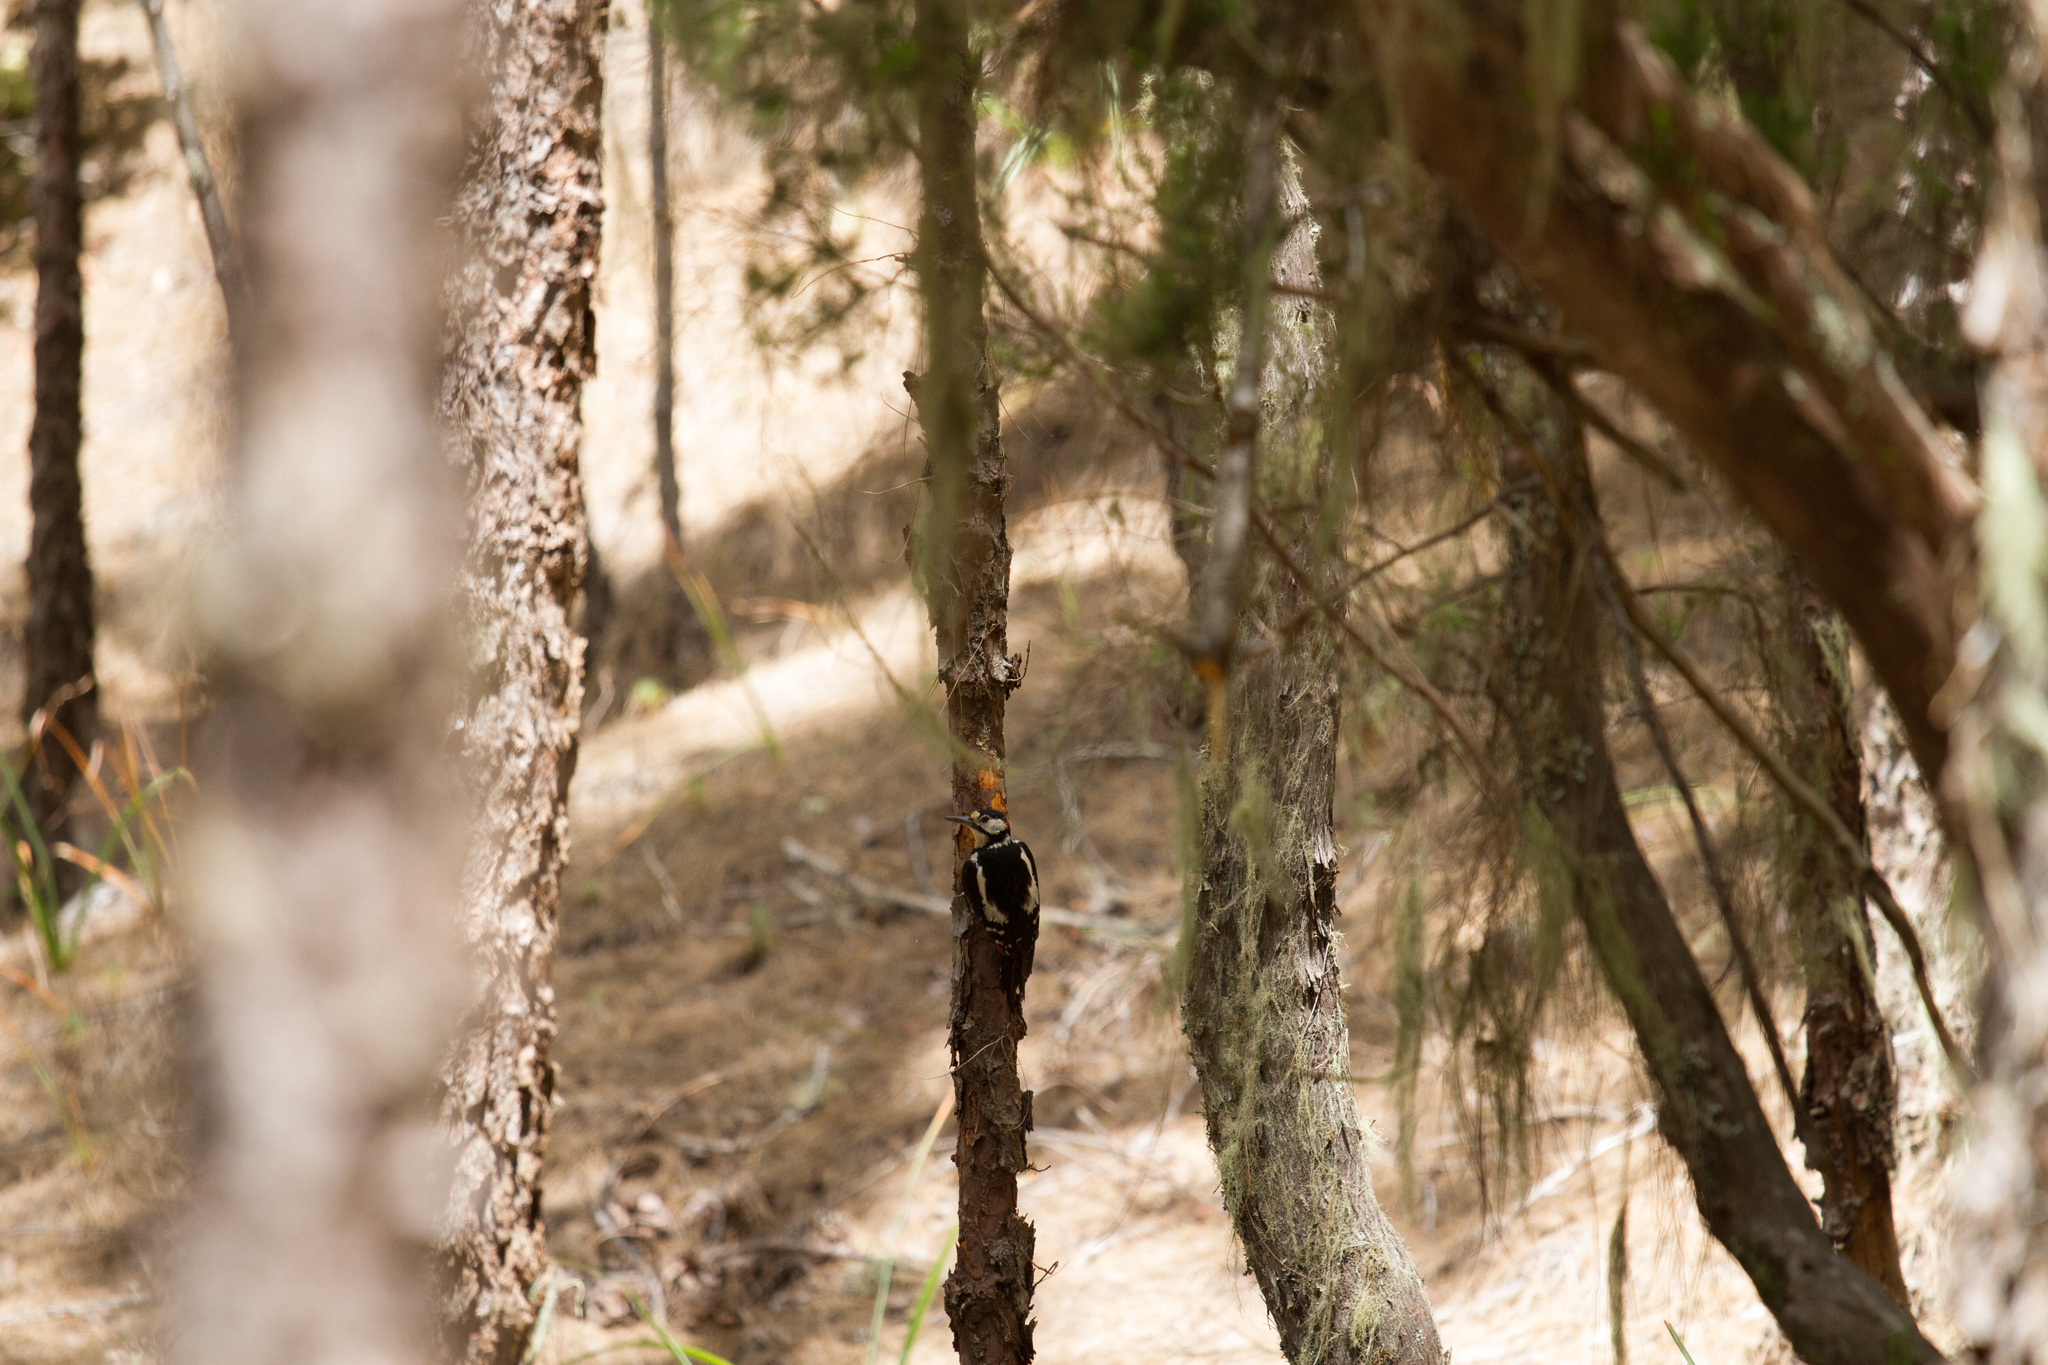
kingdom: Animalia
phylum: Chordata
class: Aves
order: Piciformes
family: Picidae
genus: Dendrocopos
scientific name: Dendrocopos major
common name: Great spotted woodpecker
